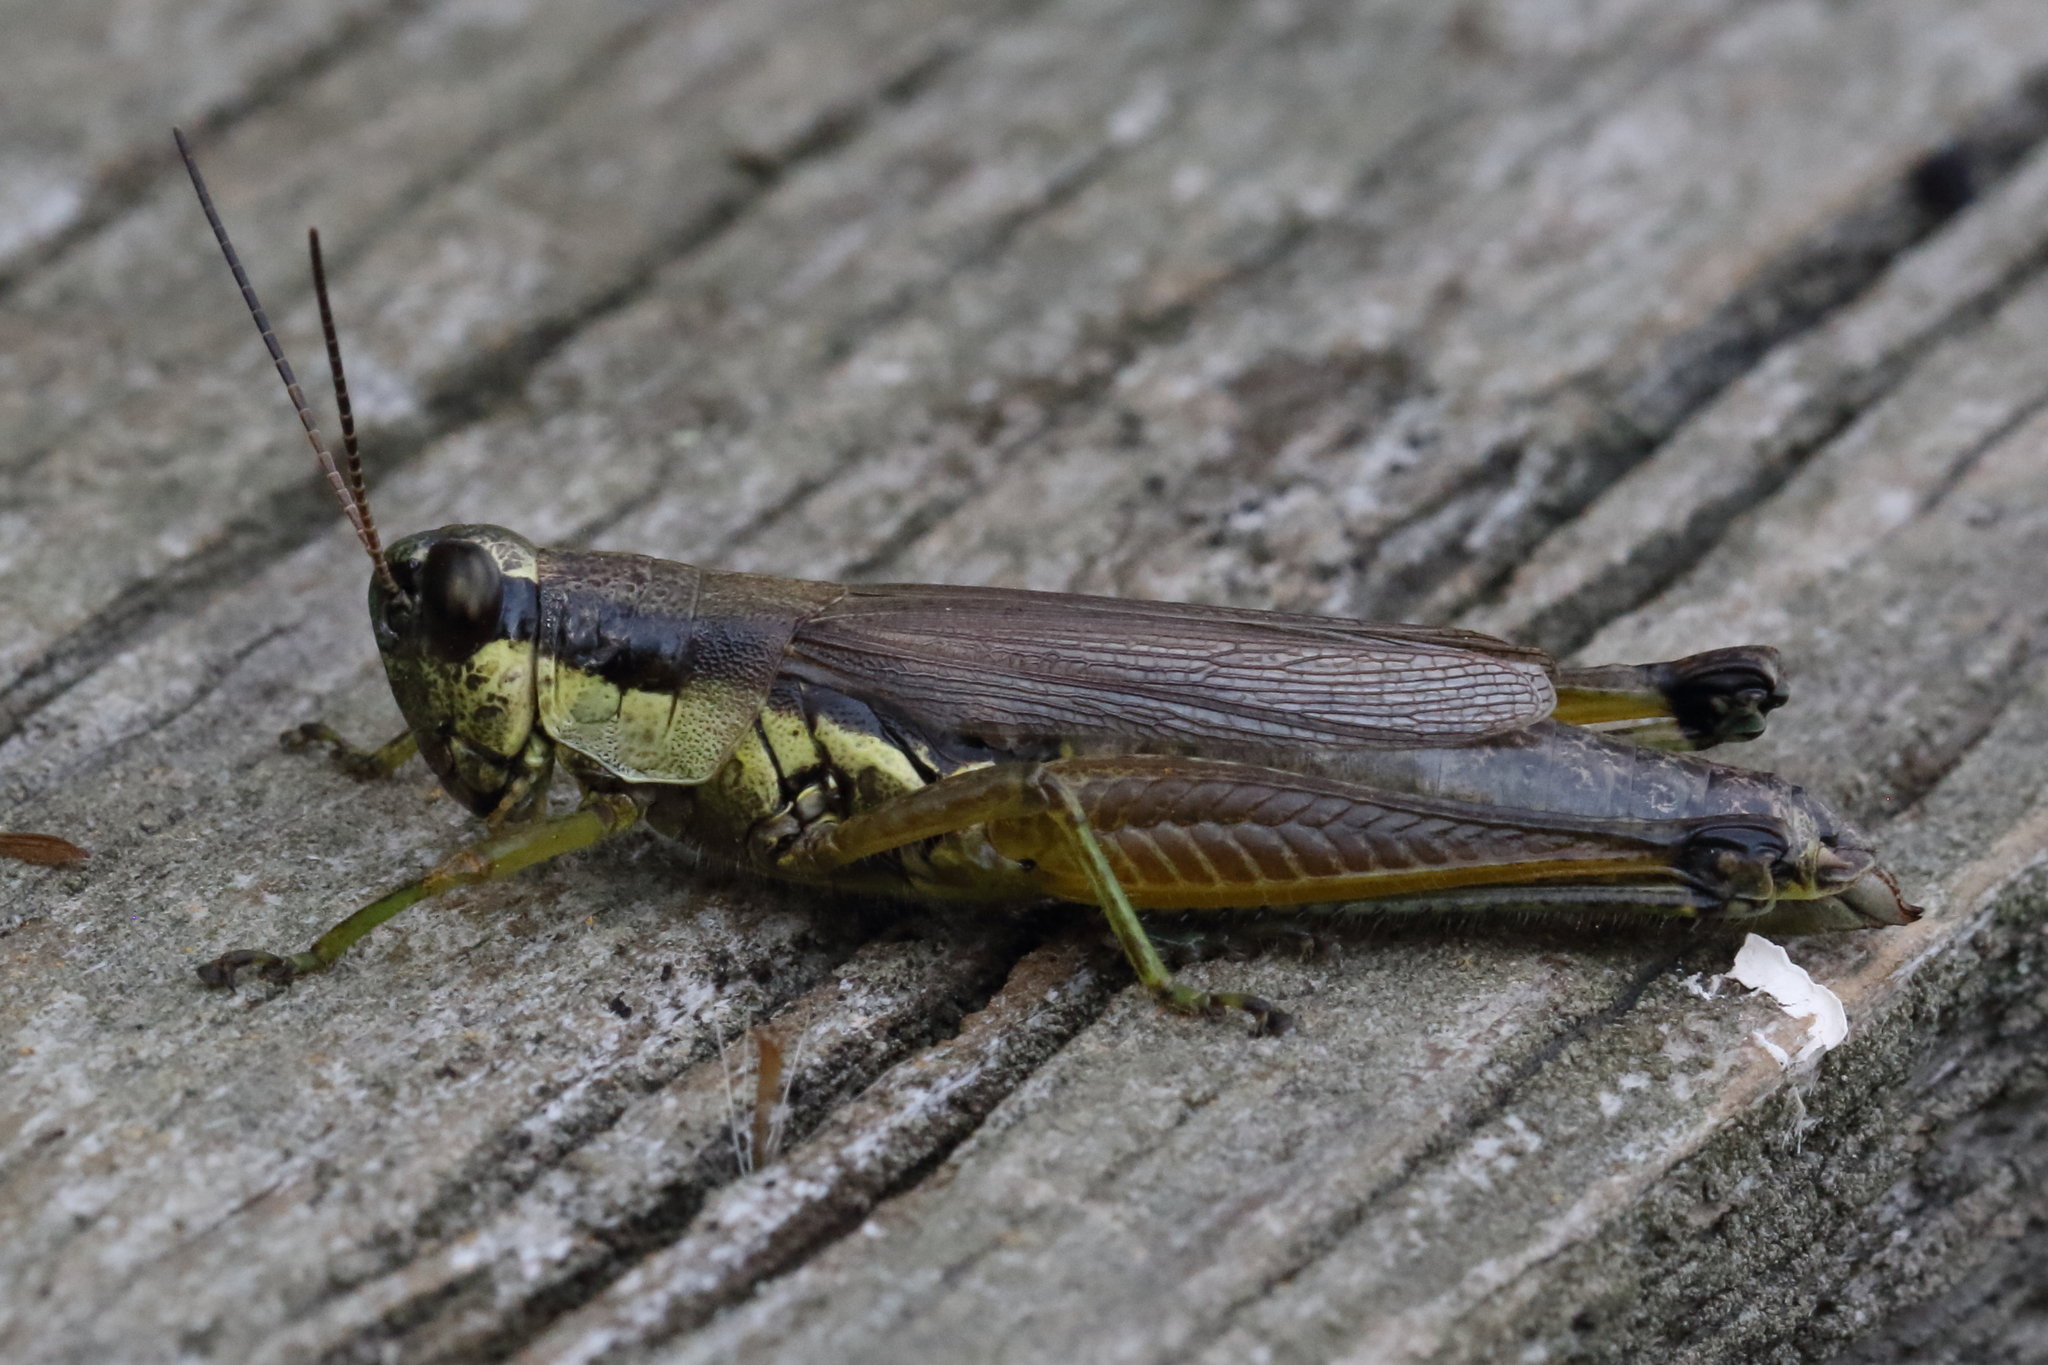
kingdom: Animalia
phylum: Arthropoda
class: Insecta
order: Orthoptera
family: Acrididae
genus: Paroxya
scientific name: Paroxya clavuligera
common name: Olive-green swamp grasshopper
